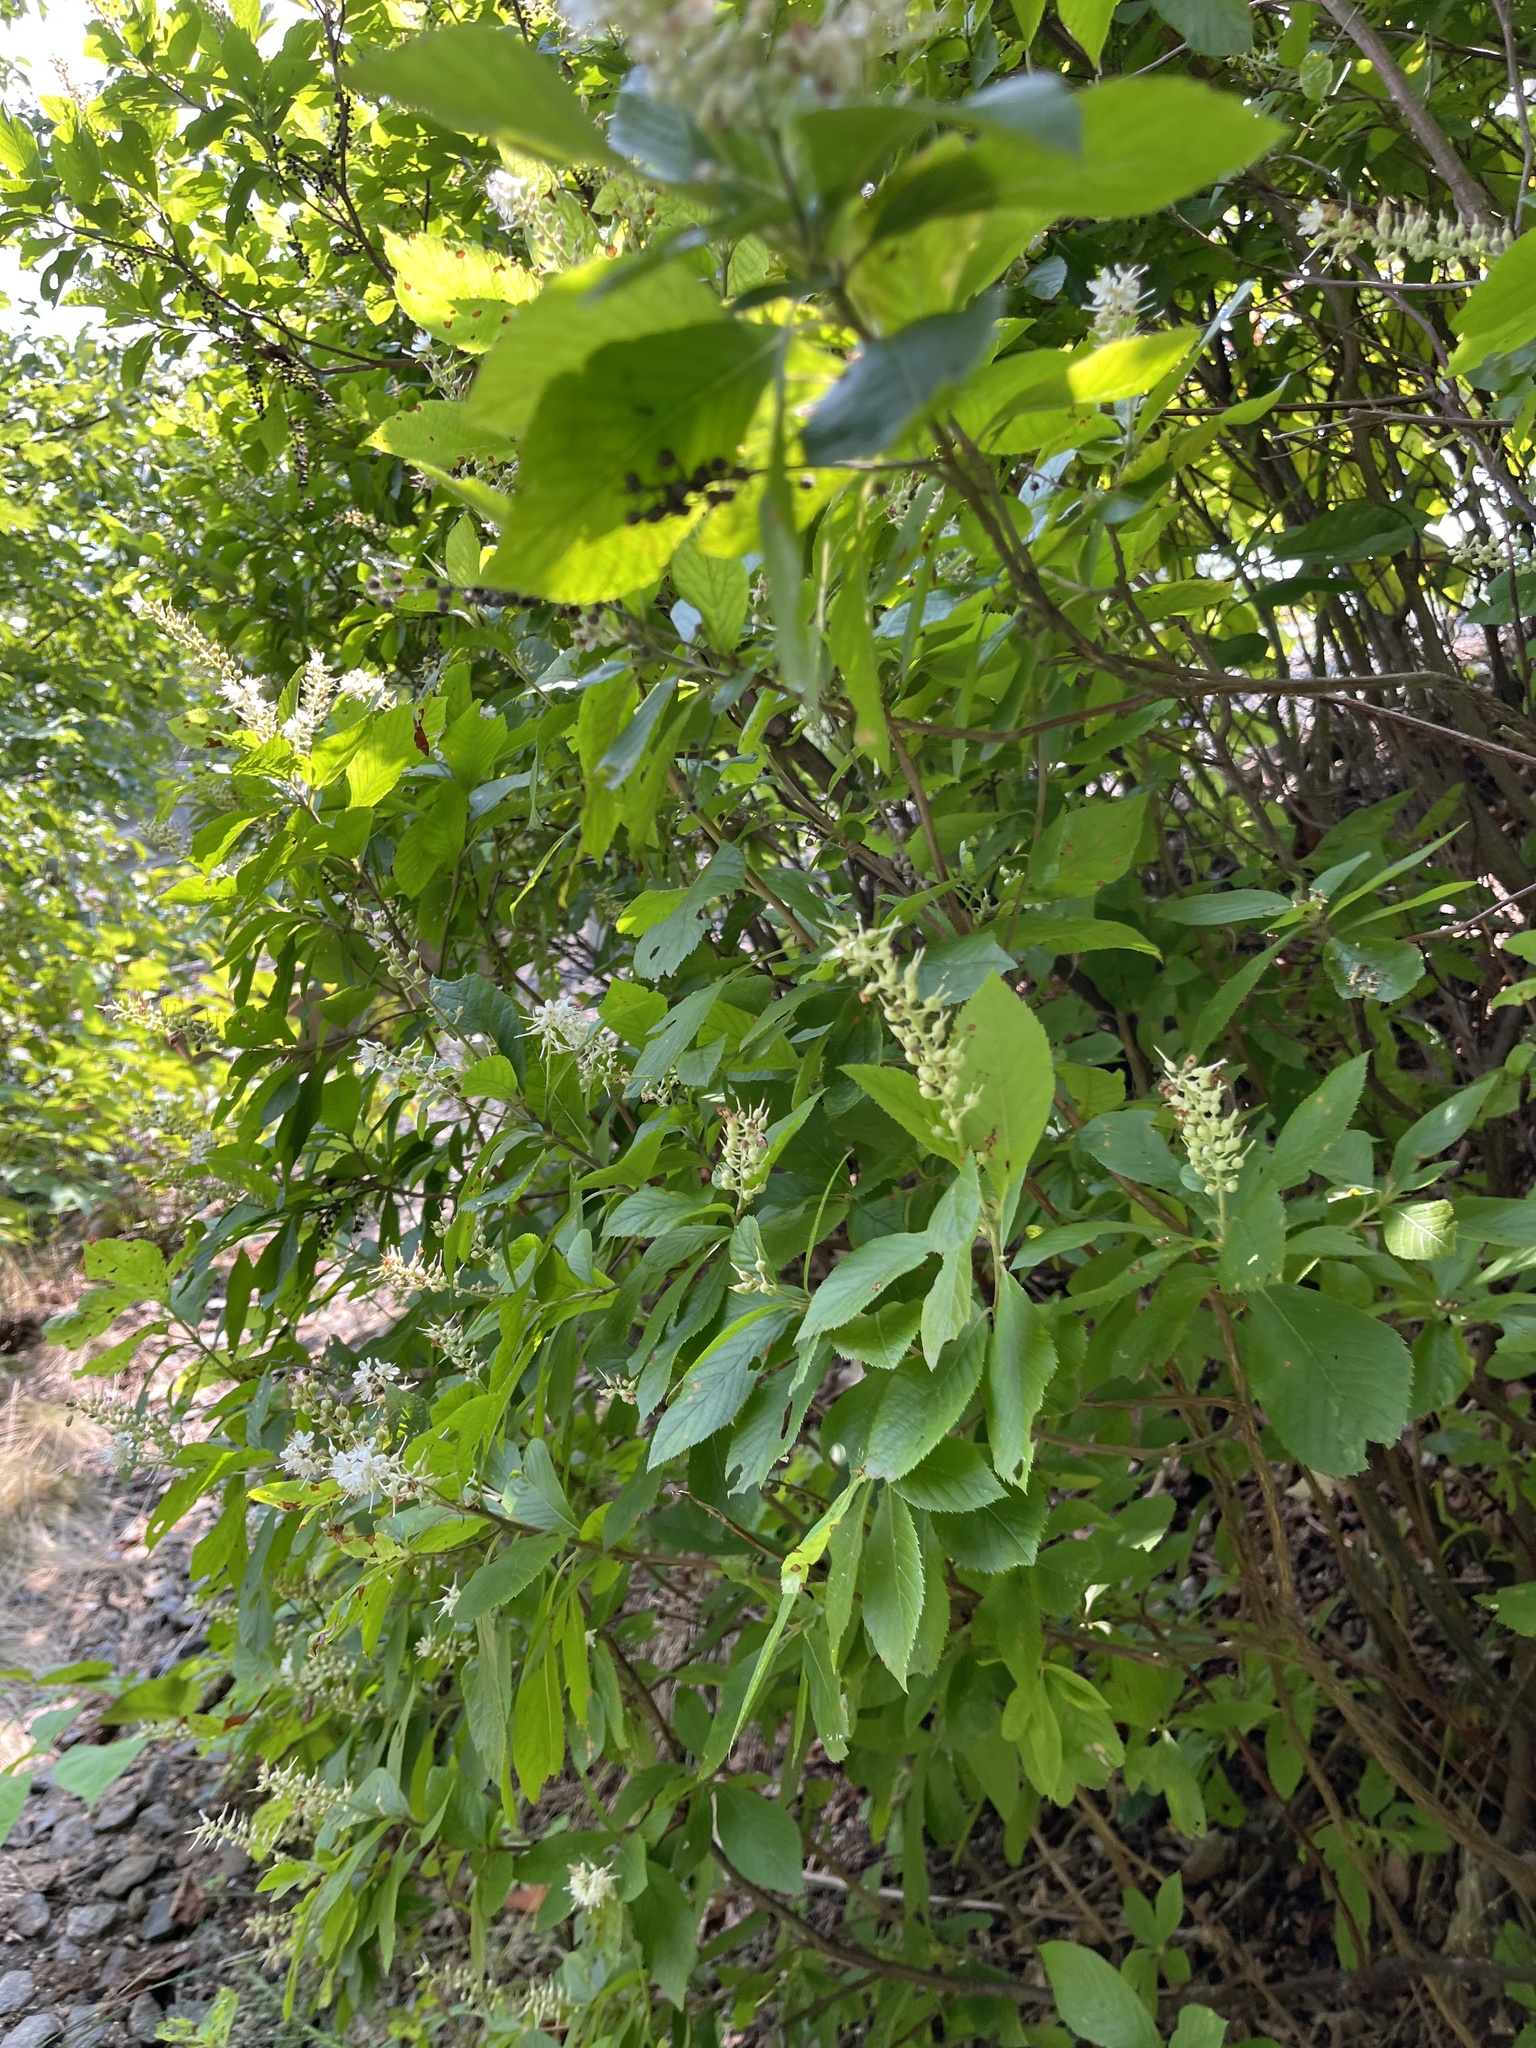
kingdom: Plantae
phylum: Tracheophyta
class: Magnoliopsida
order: Ericales
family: Clethraceae
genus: Clethra
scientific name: Clethra alnifolia
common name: Sweet pepperbush
